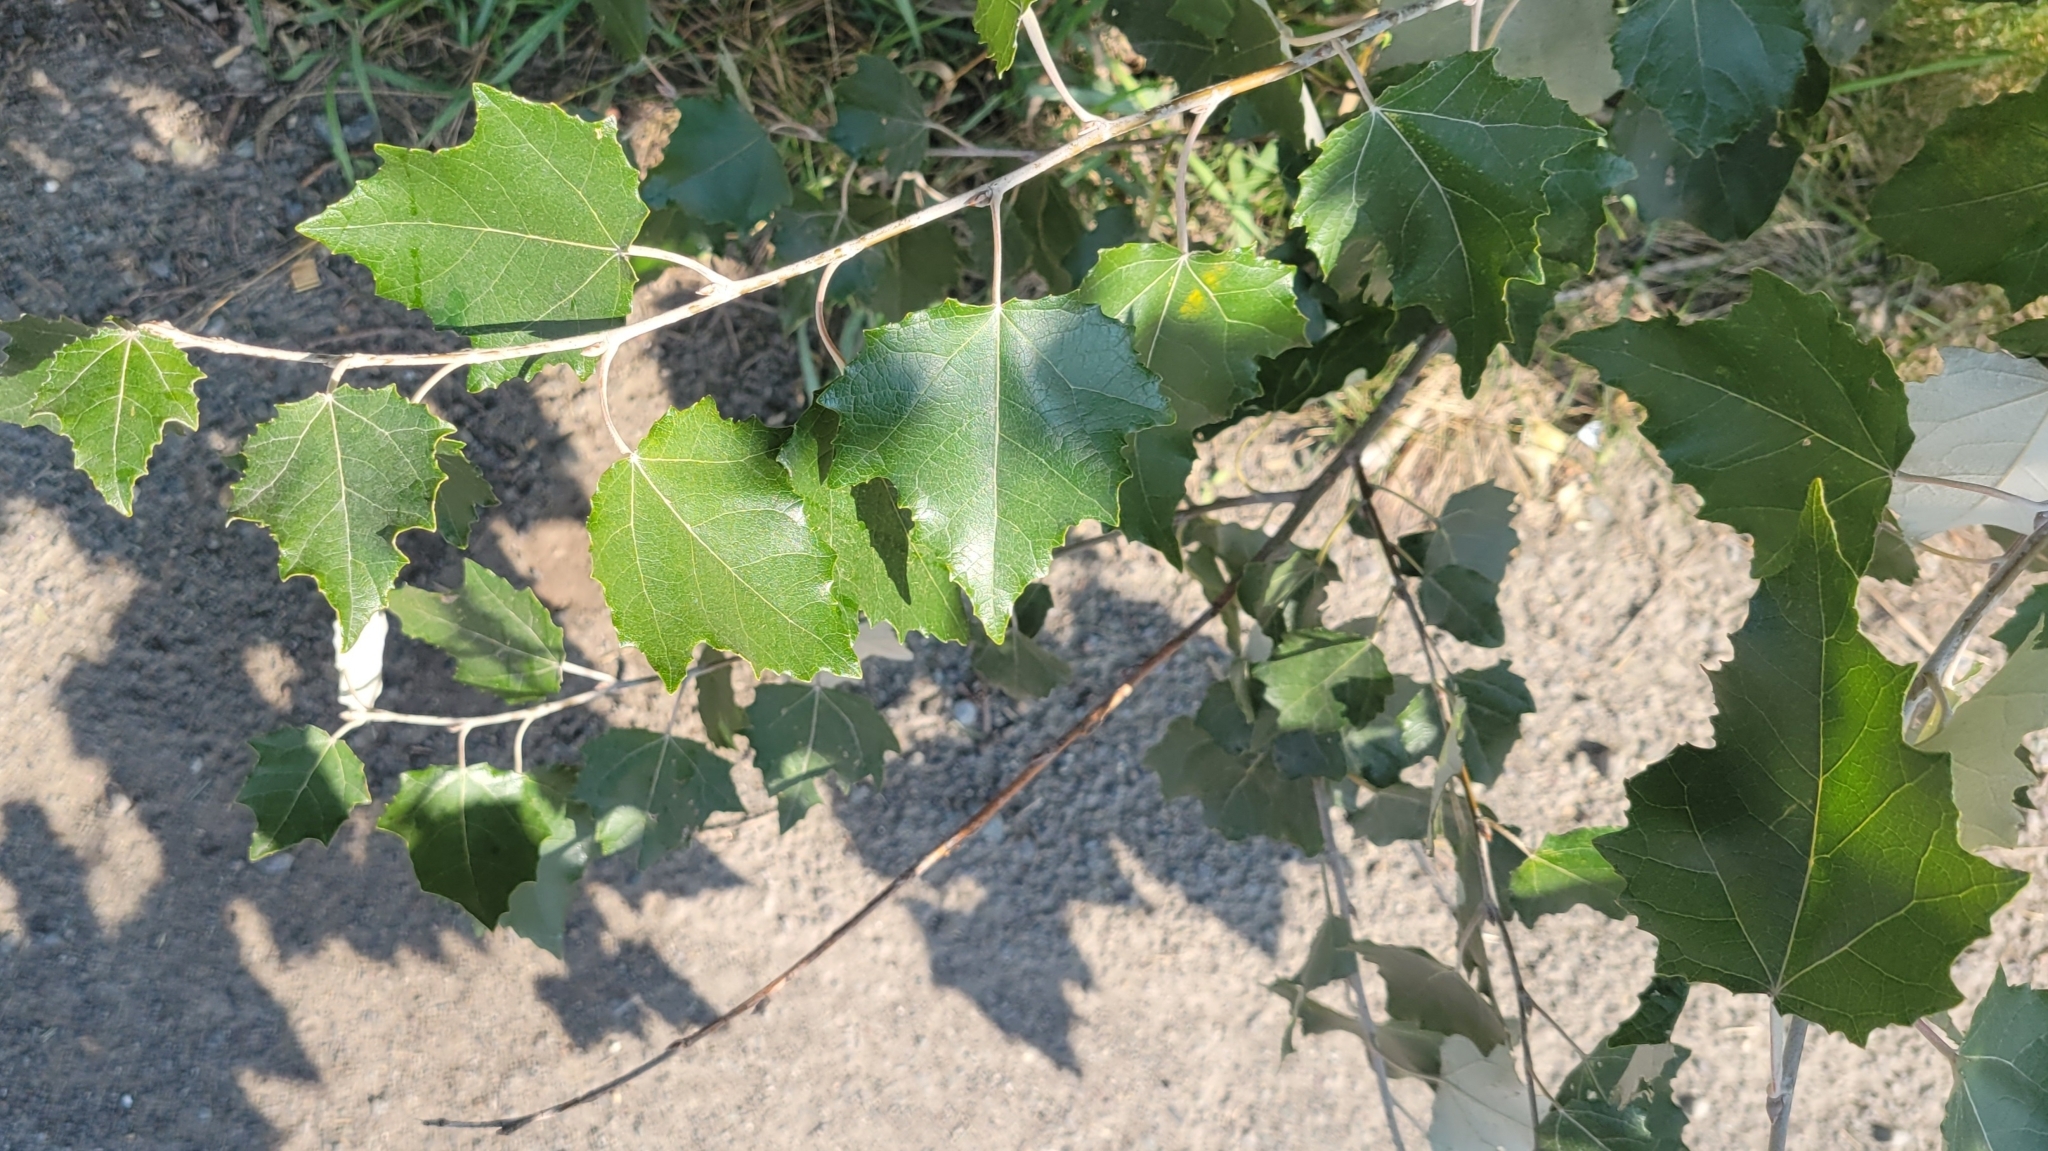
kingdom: Plantae
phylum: Tracheophyta
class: Magnoliopsida
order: Malpighiales
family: Salicaceae
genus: Populus
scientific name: Populus alba
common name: White poplar
